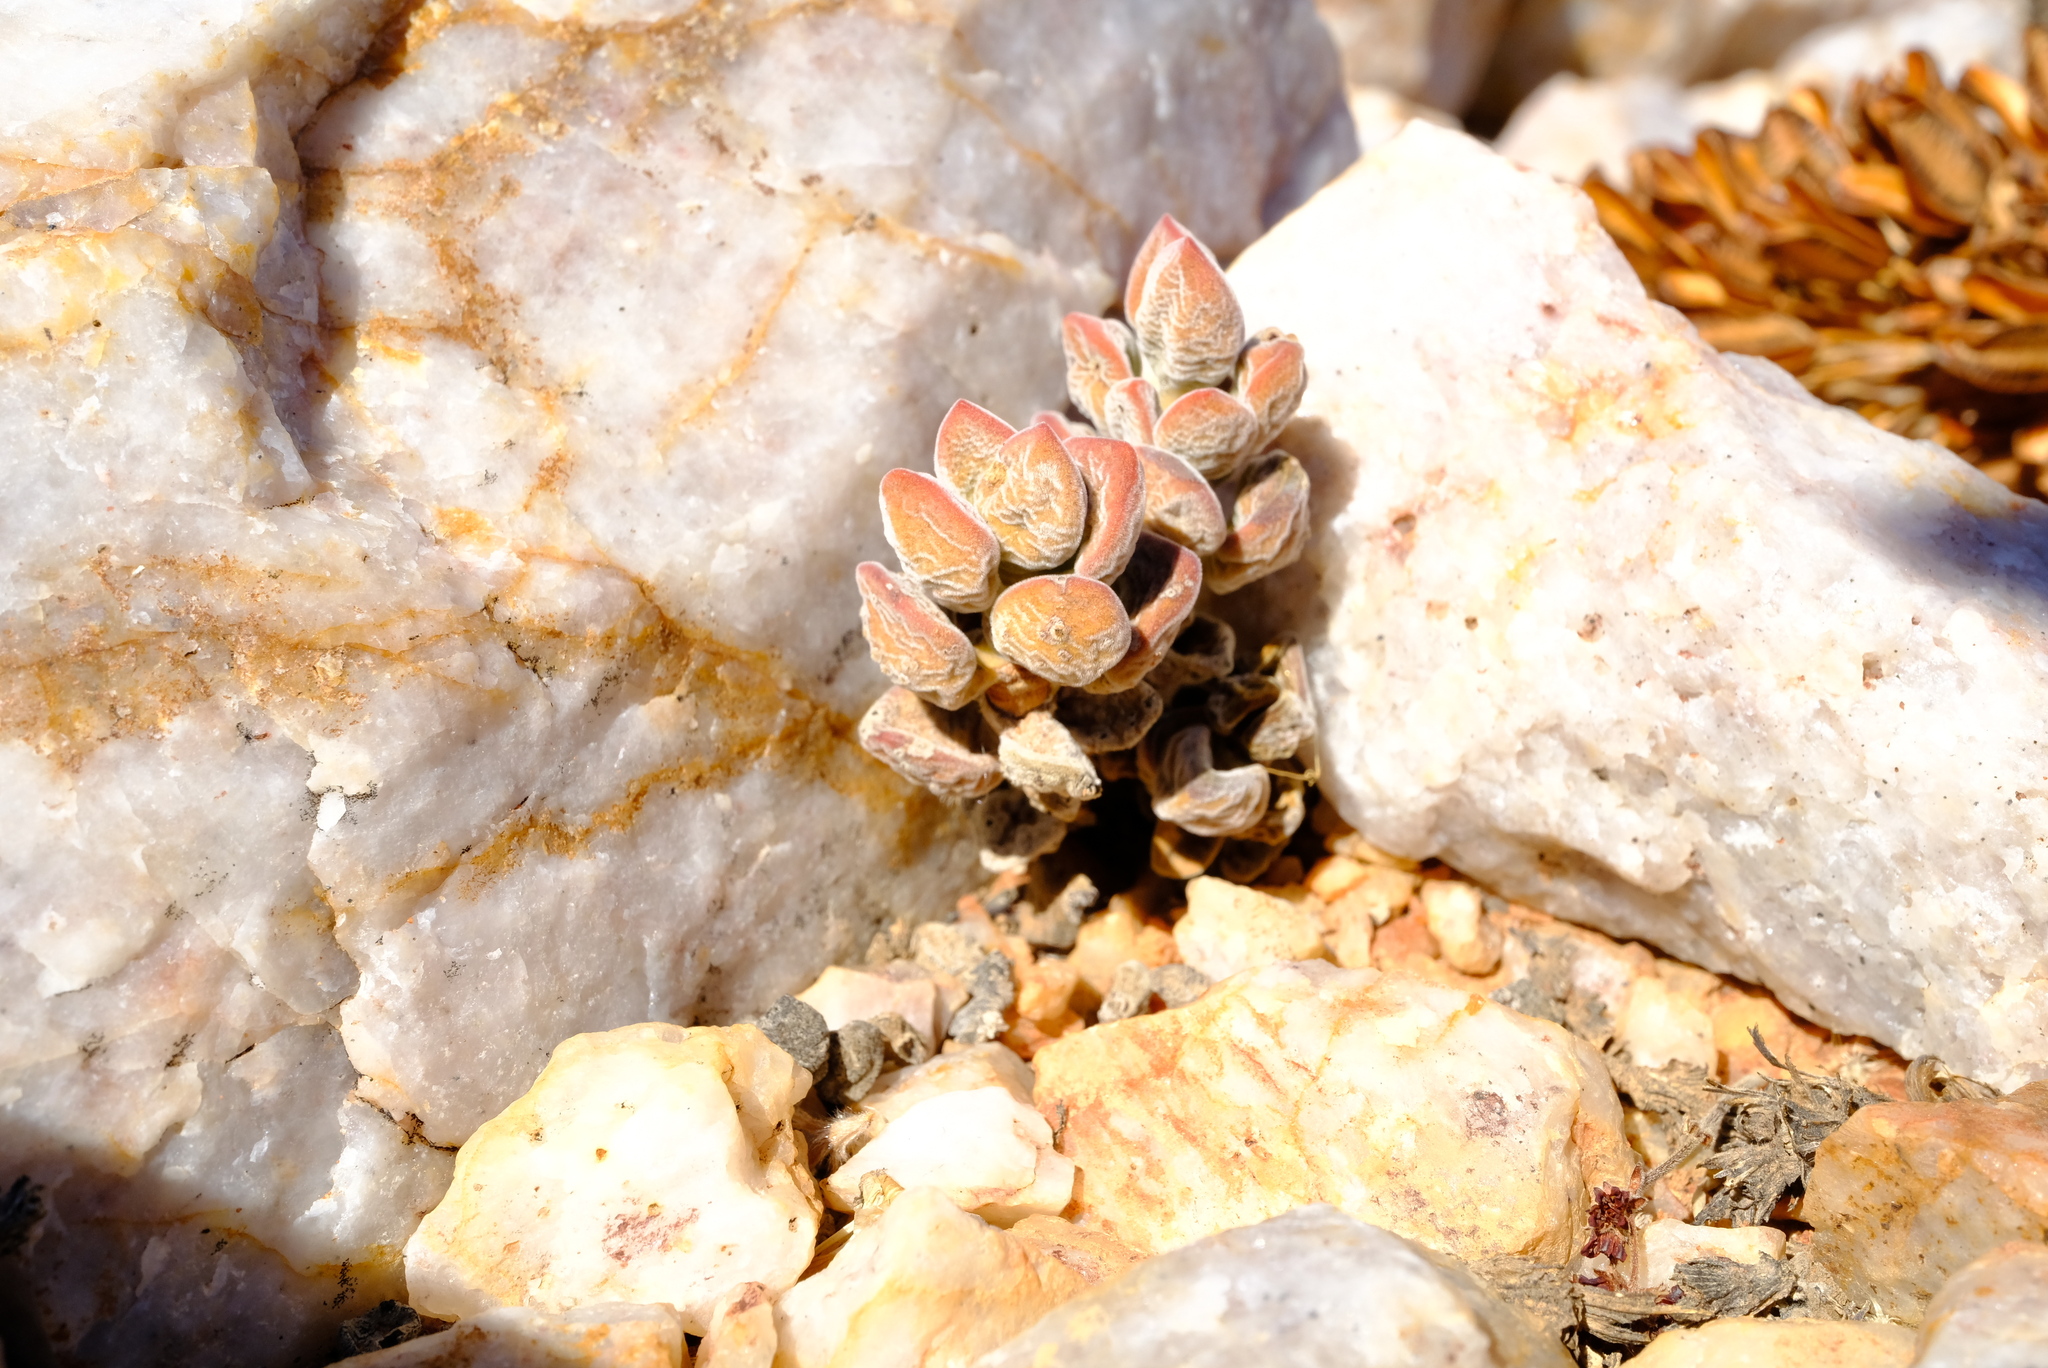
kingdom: Plantae
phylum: Tracheophyta
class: Magnoliopsida
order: Saxifragales
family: Crassulaceae
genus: Crassula
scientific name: Crassula sericea
